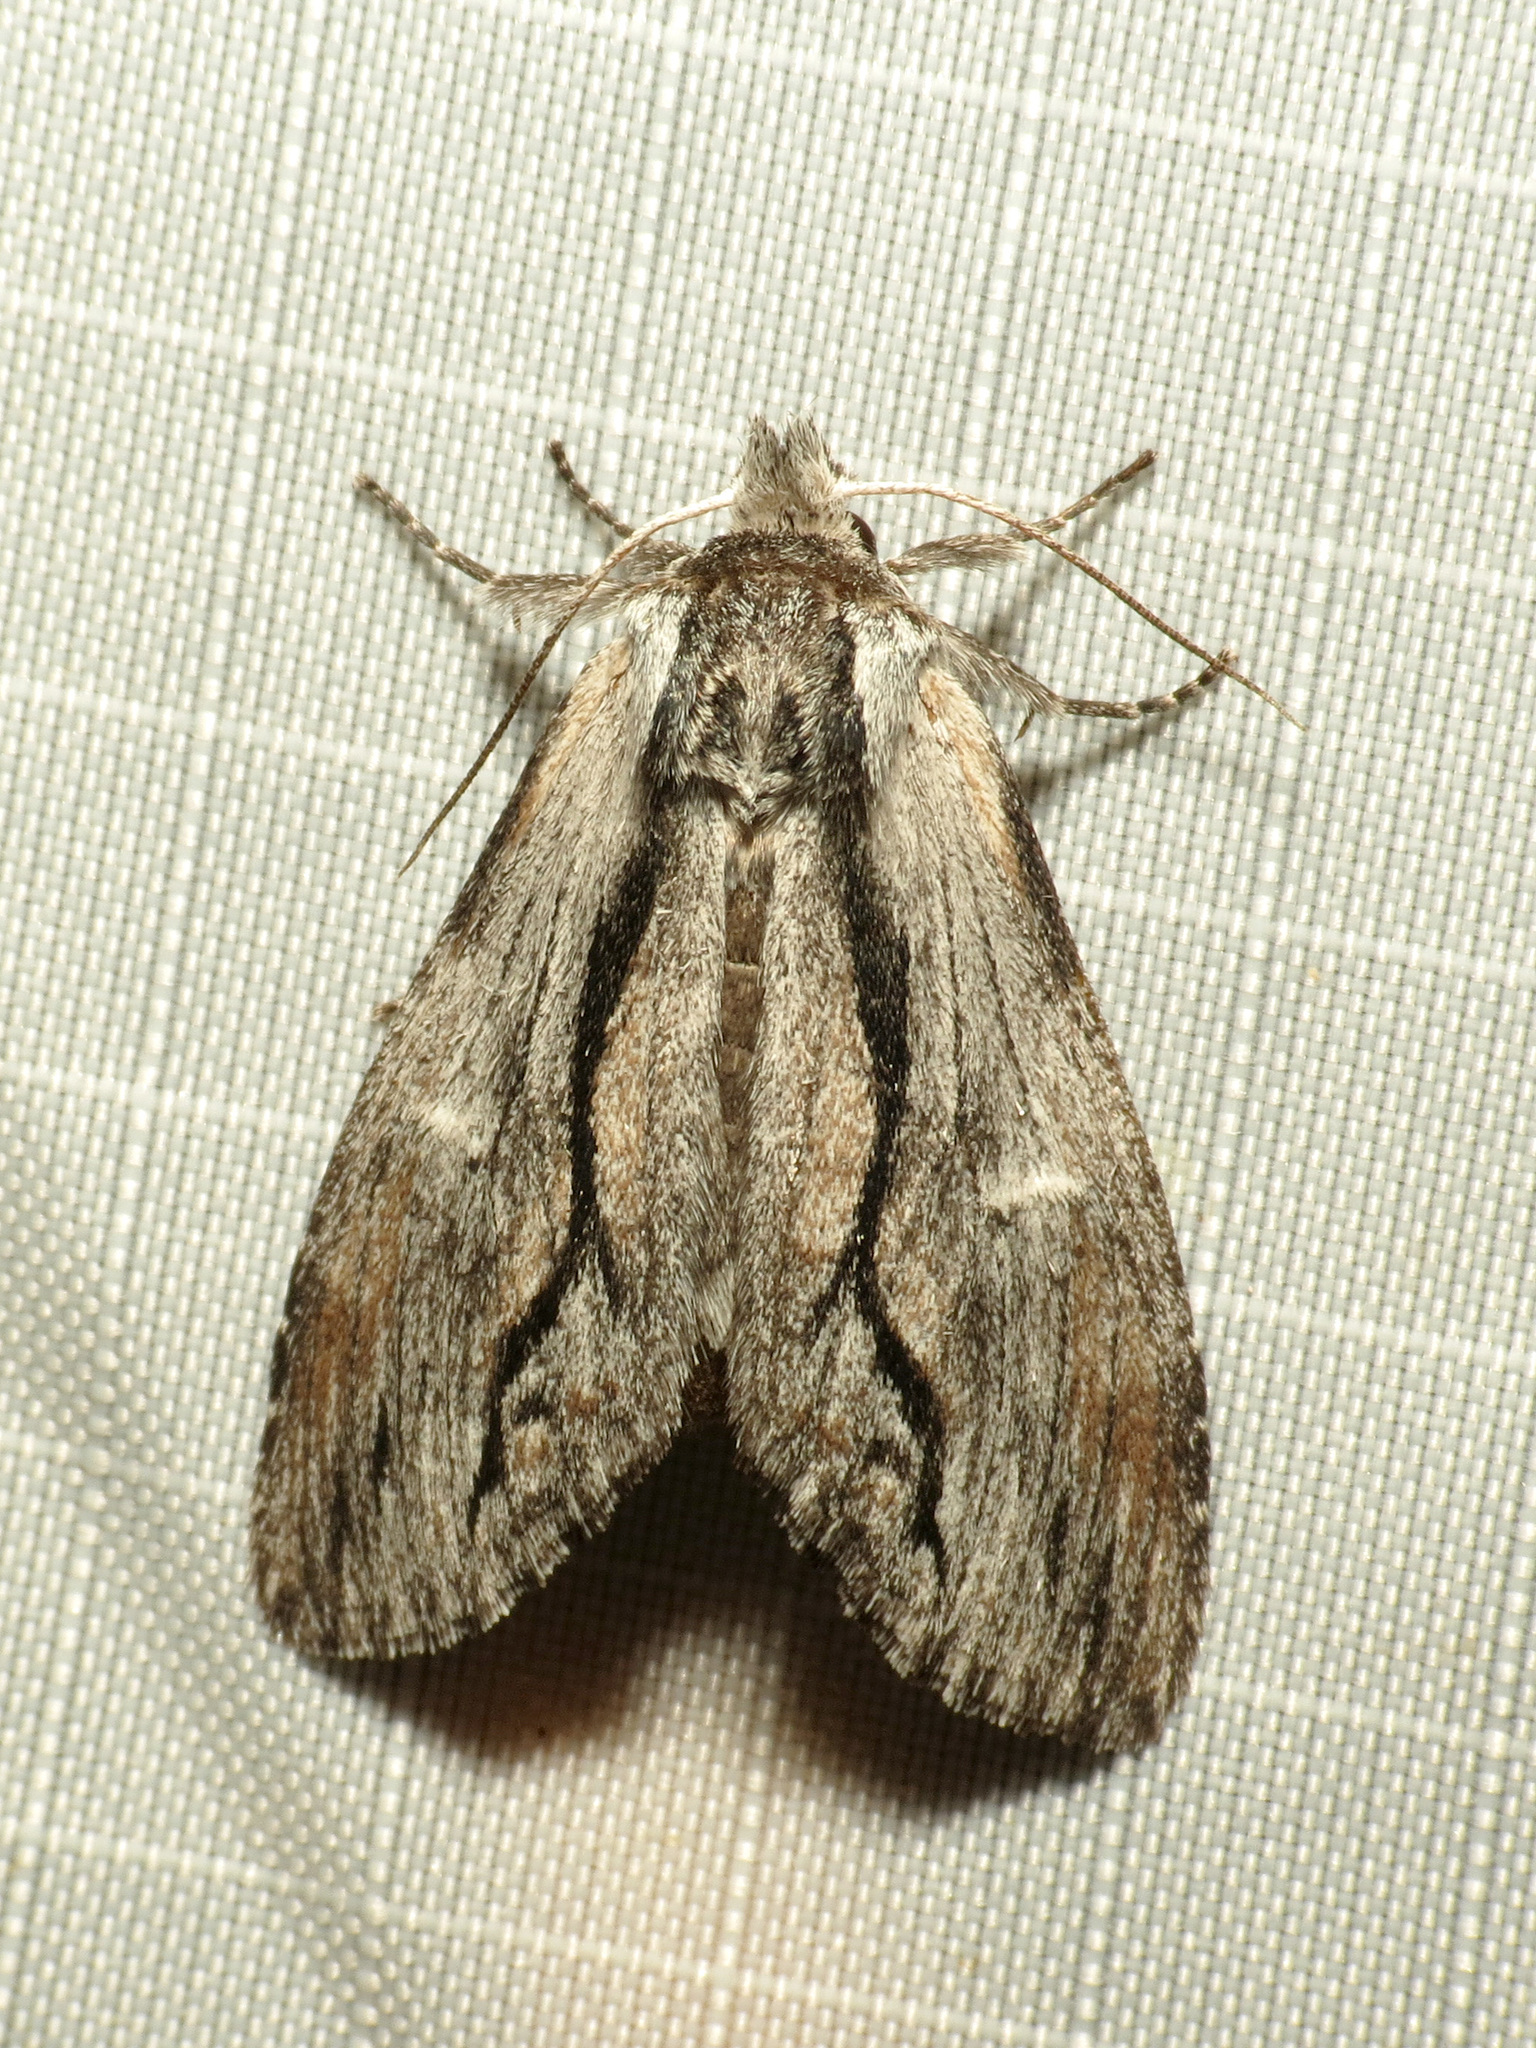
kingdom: Animalia
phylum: Arthropoda
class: Insecta
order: Lepidoptera
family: Notodontidae
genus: Notela
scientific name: Notela jaliscana
